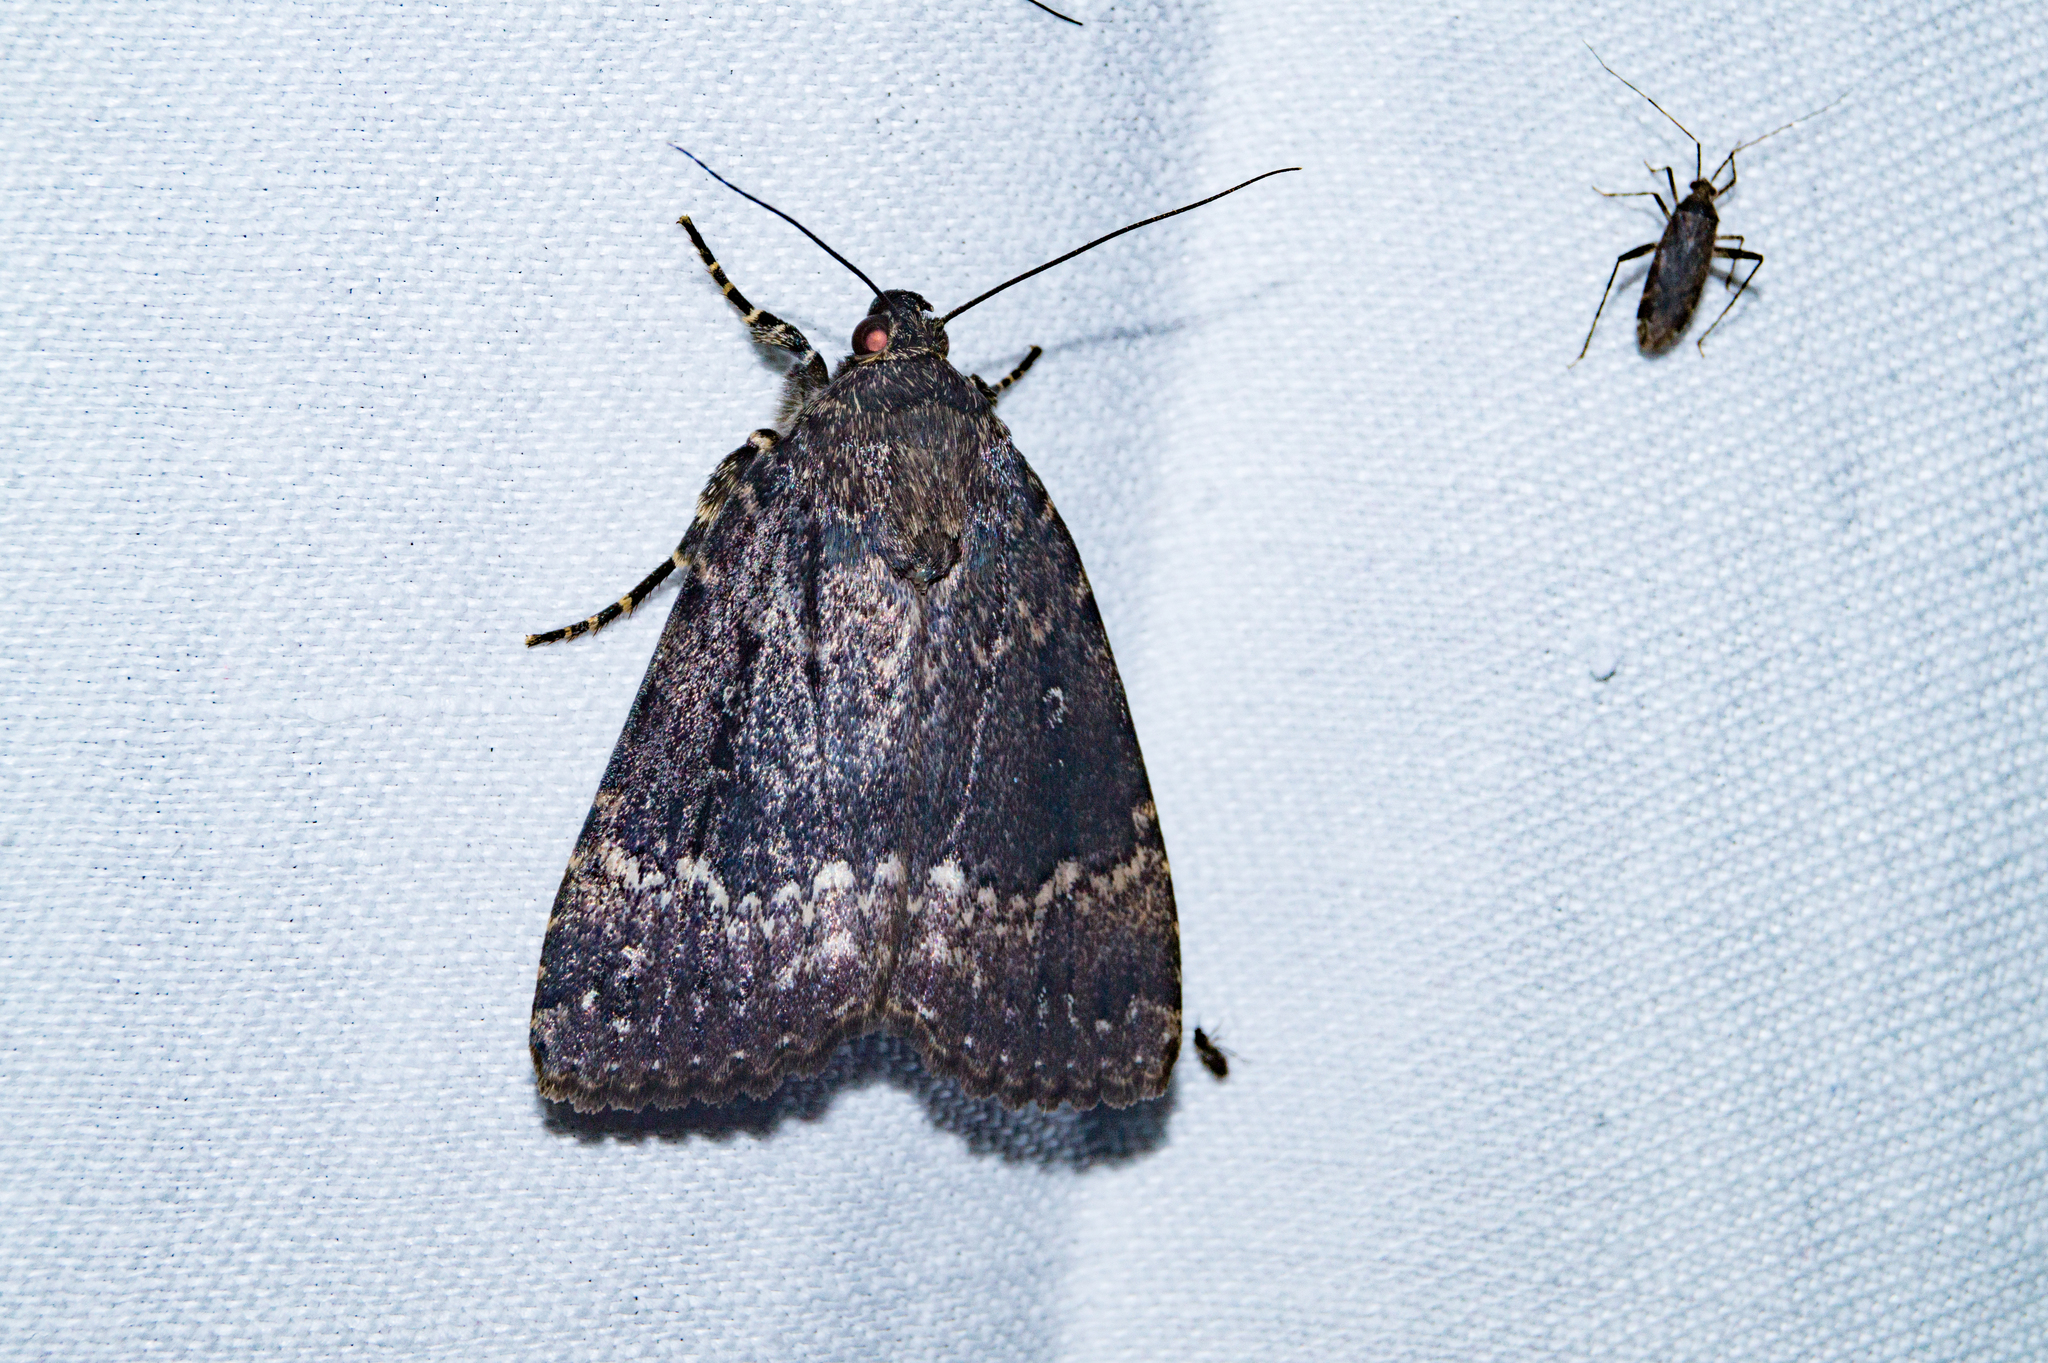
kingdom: Animalia
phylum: Arthropoda
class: Insecta
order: Lepidoptera
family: Noctuidae
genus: Amphipyra
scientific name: Amphipyra pyramidea
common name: Copper underwing
